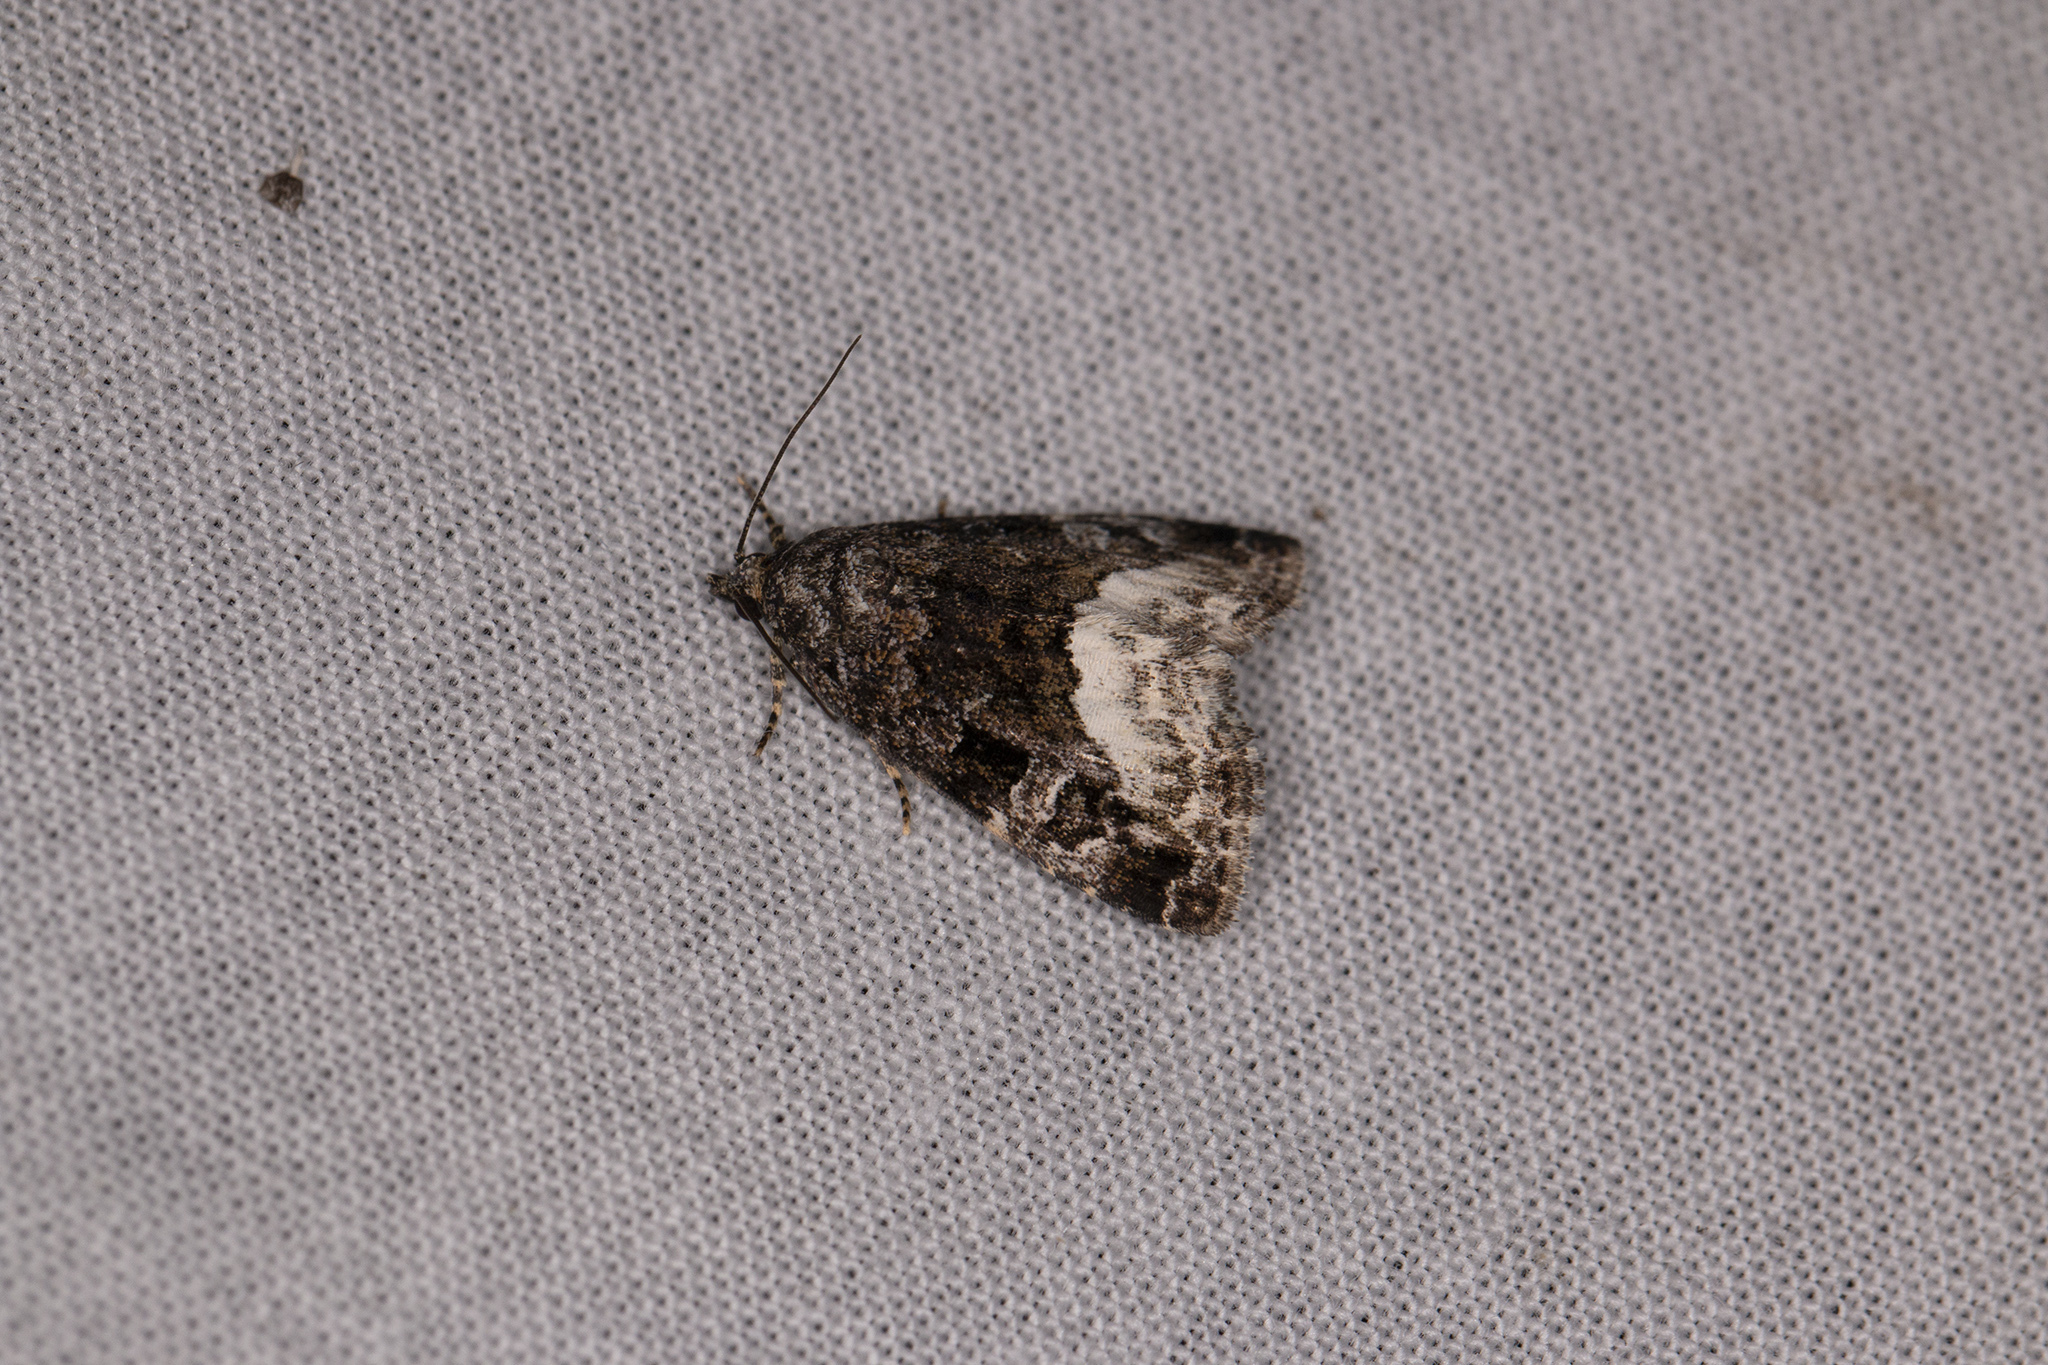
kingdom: Animalia
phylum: Arthropoda
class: Insecta
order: Lepidoptera
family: Noctuidae
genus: Deltote
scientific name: Deltote pygarga
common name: Marbled white spot
